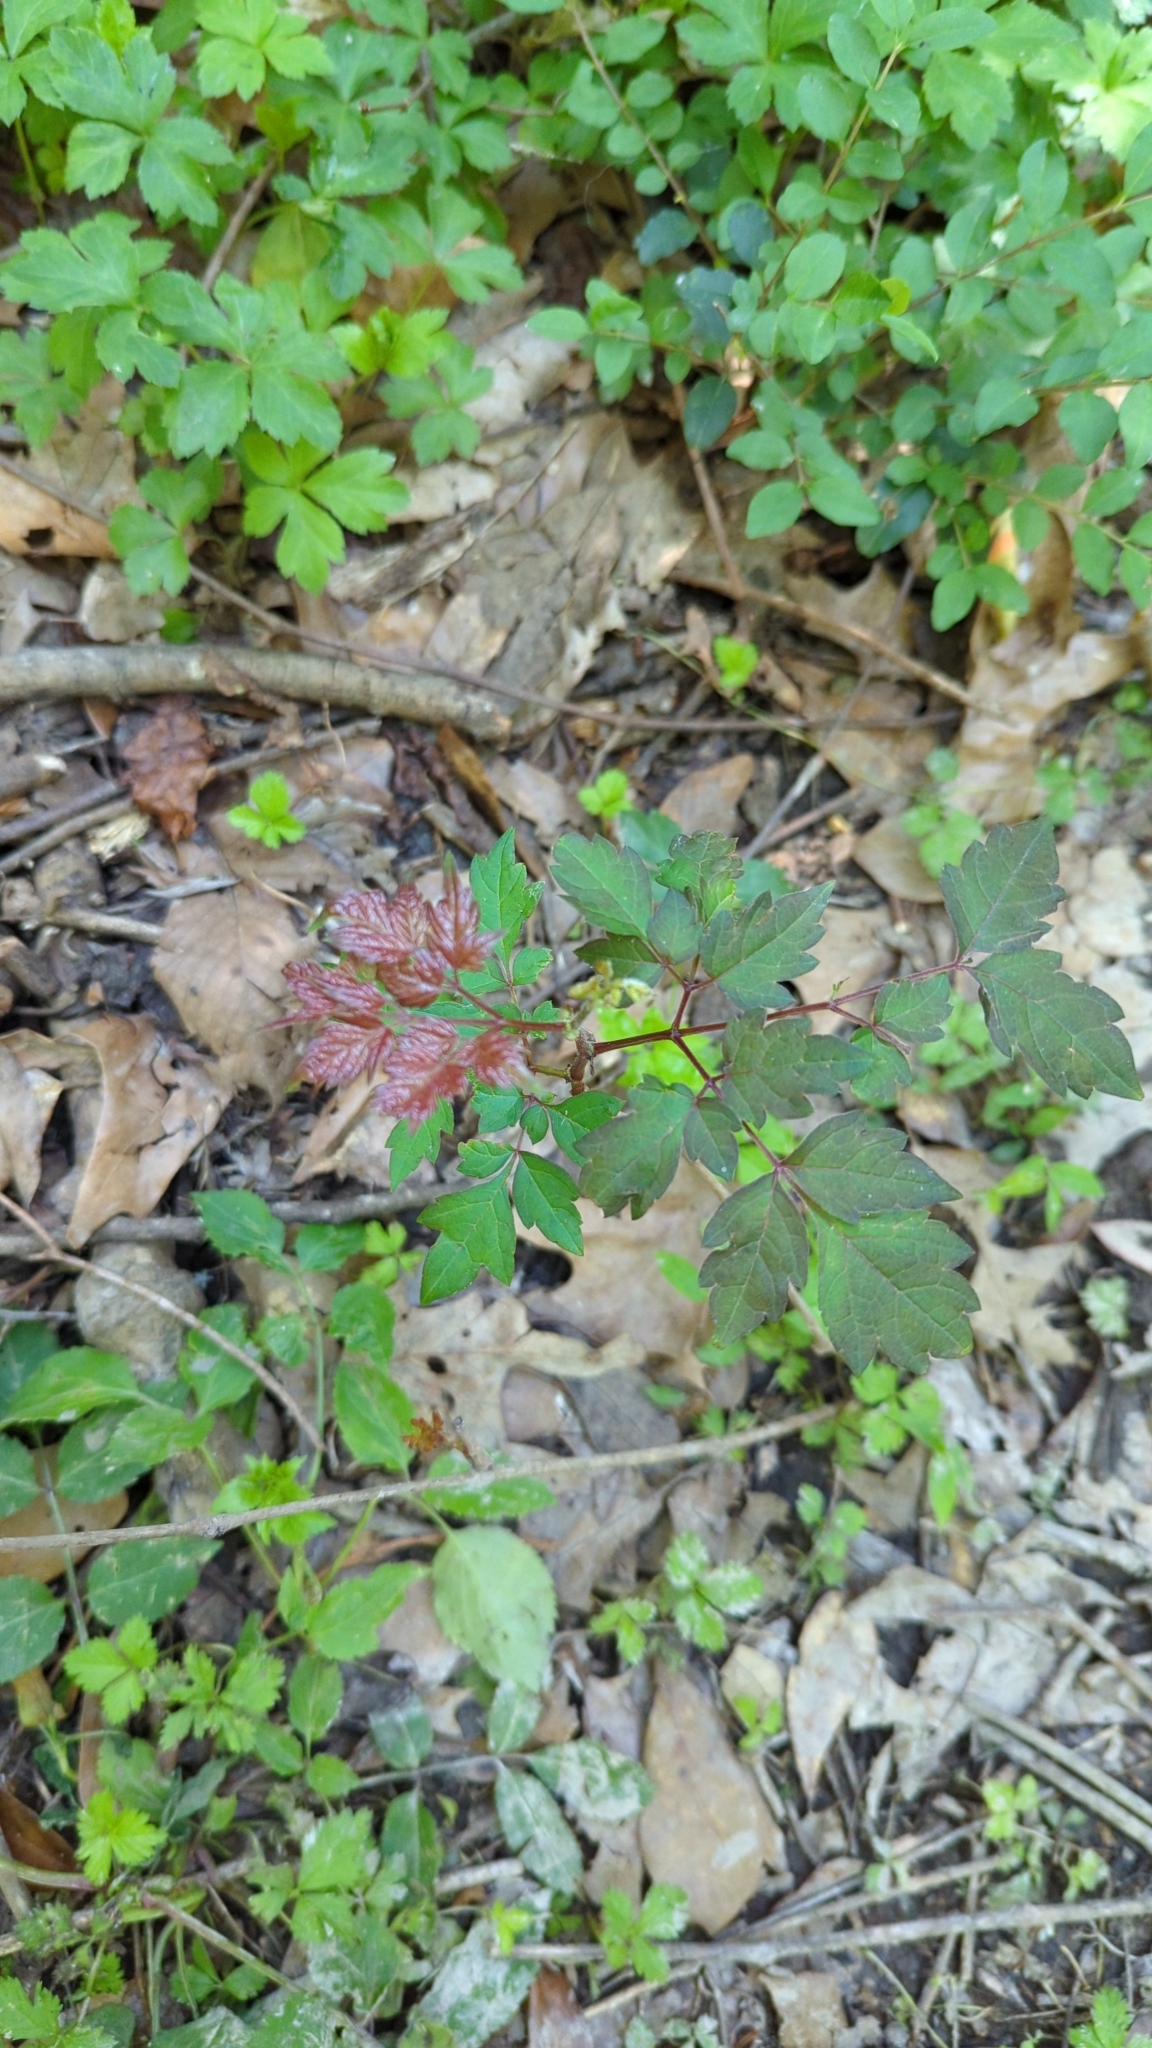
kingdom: Plantae
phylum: Tracheophyta
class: Magnoliopsida
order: Vitales
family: Vitaceae
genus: Nekemias
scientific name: Nekemias arborea
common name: Peppervine
